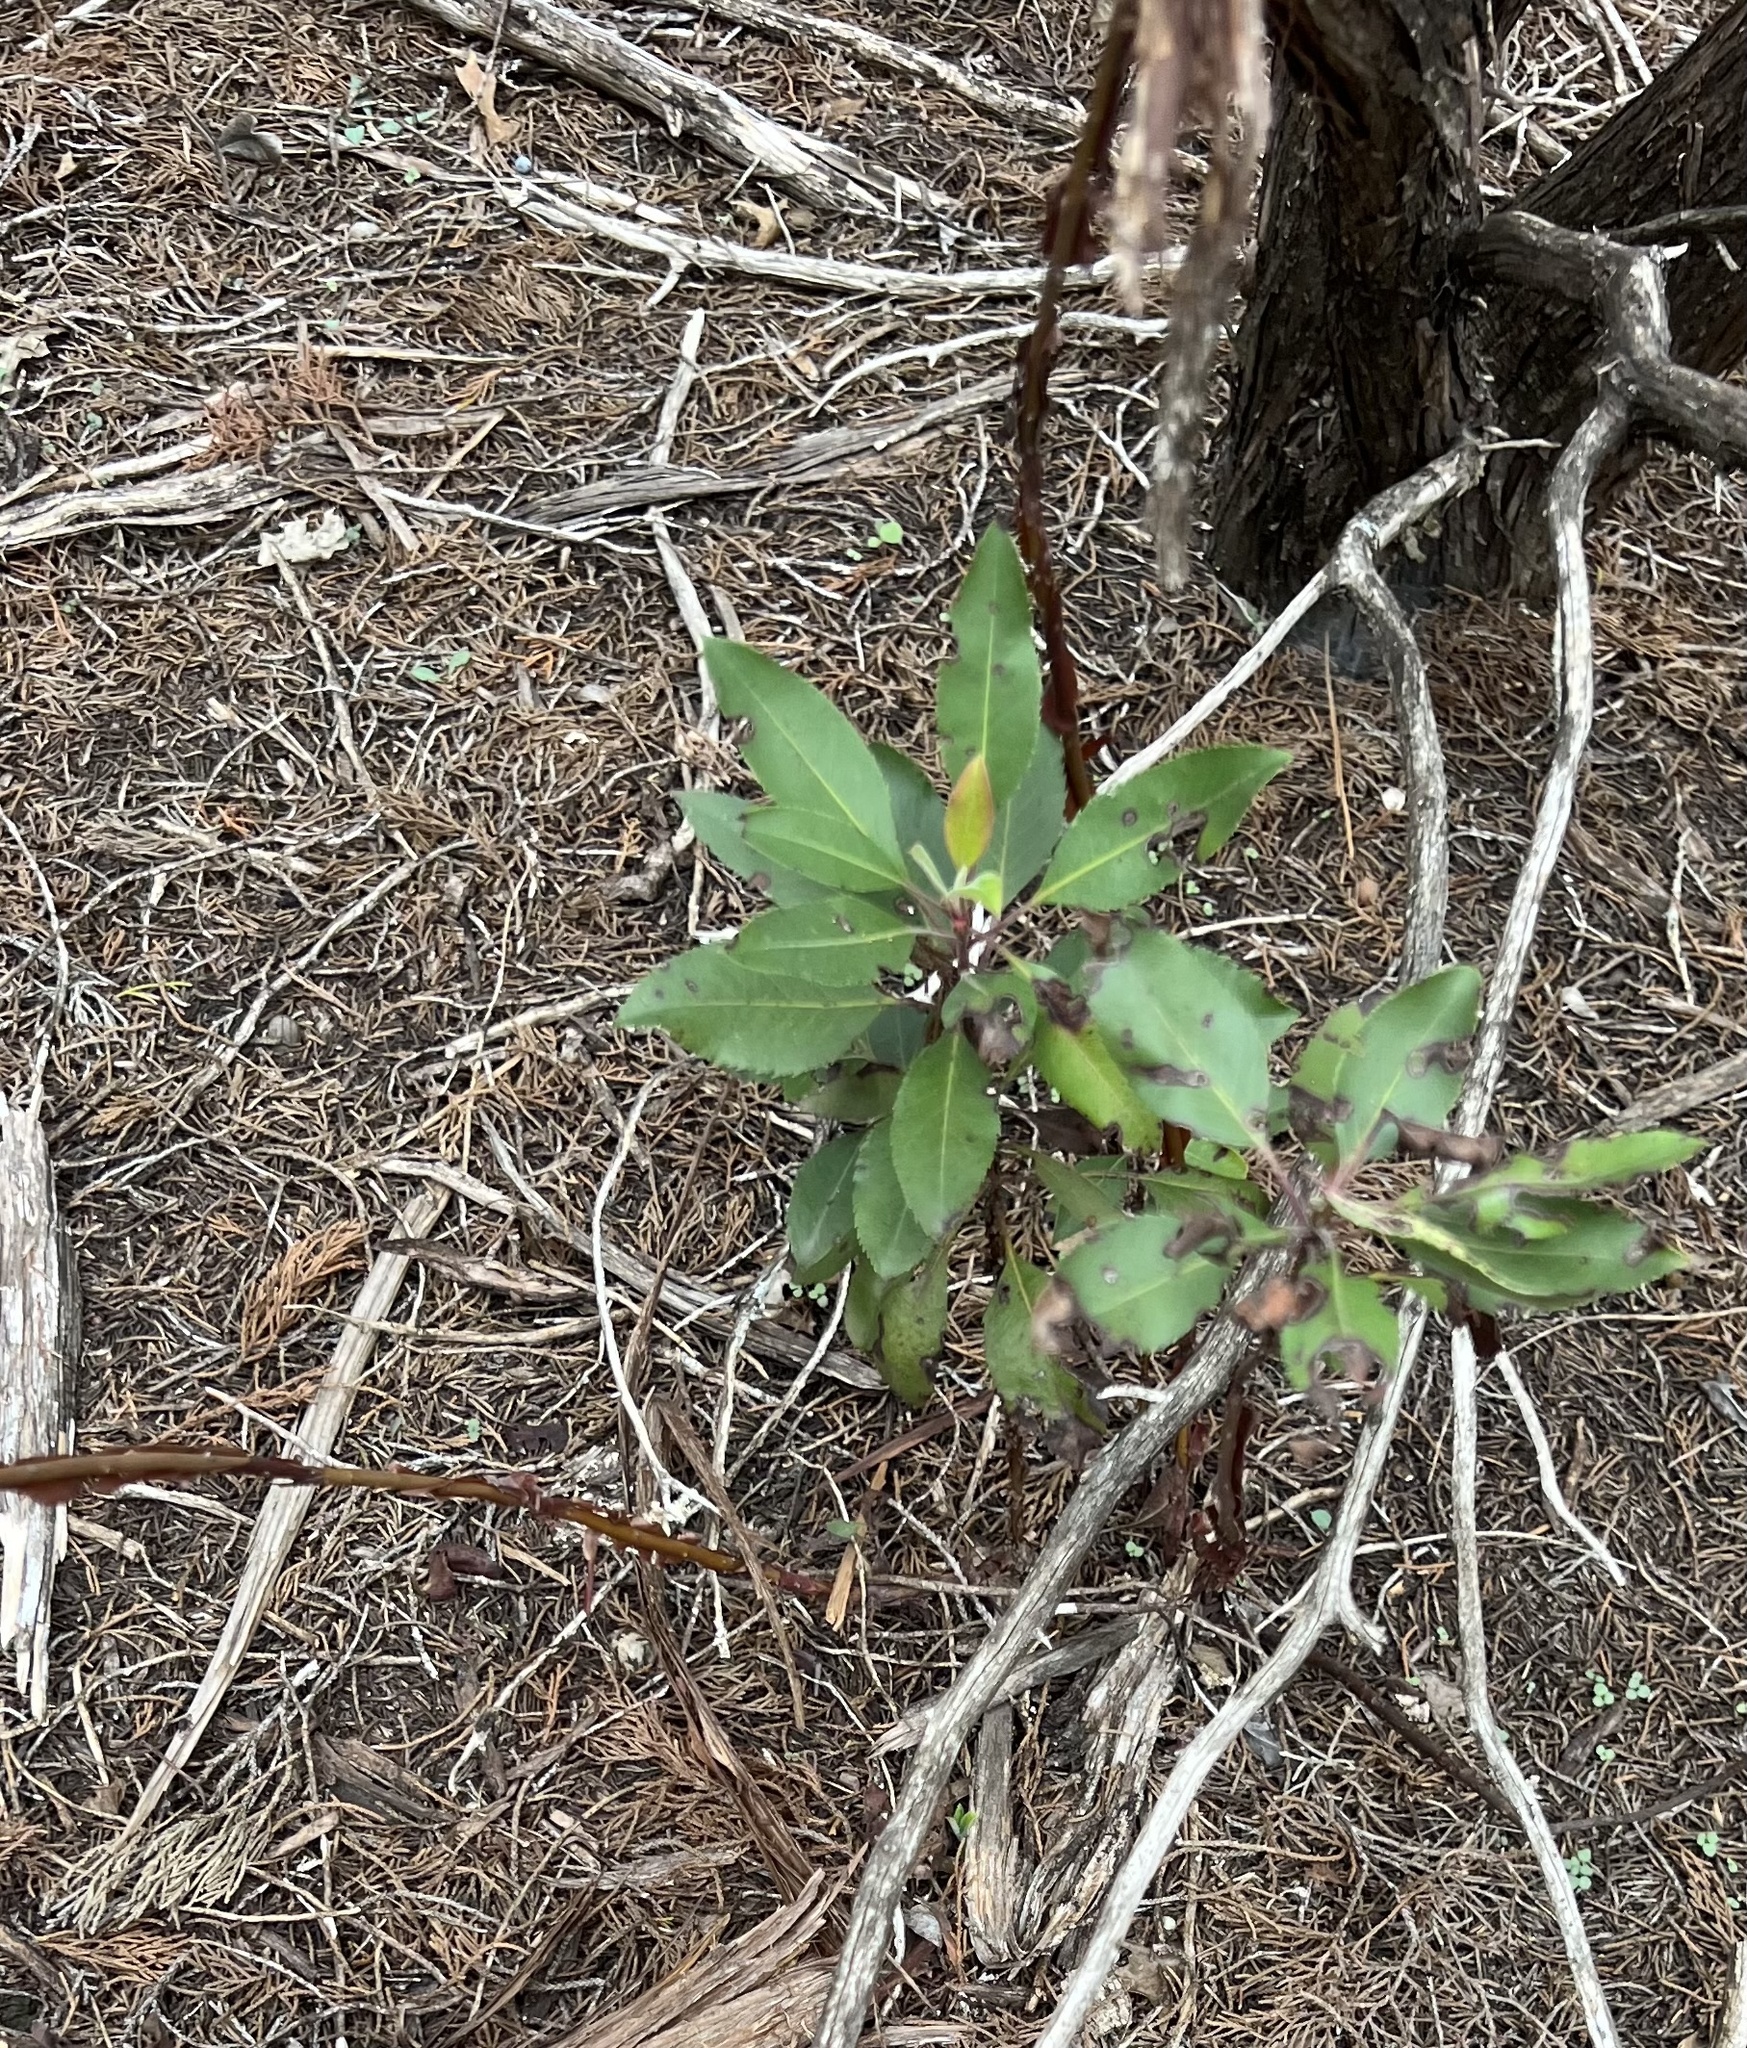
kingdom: Plantae
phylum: Tracheophyta
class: Magnoliopsida
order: Ericales
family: Ericaceae
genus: Arbutus
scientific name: Arbutus xalapensis
